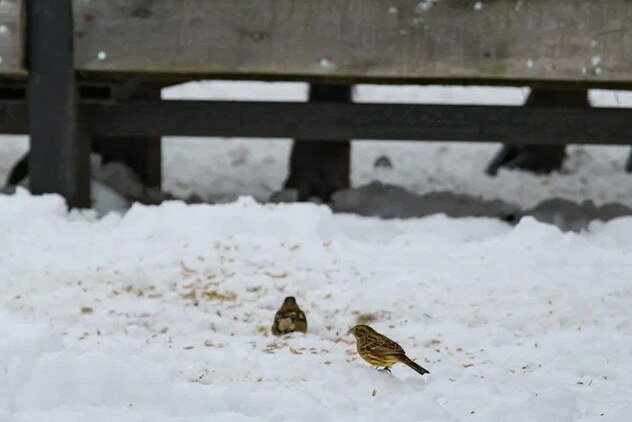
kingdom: Animalia
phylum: Chordata
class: Aves
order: Passeriformes
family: Emberizidae
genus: Emberiza
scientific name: Emberiza citrinella
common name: Yellowhammer
